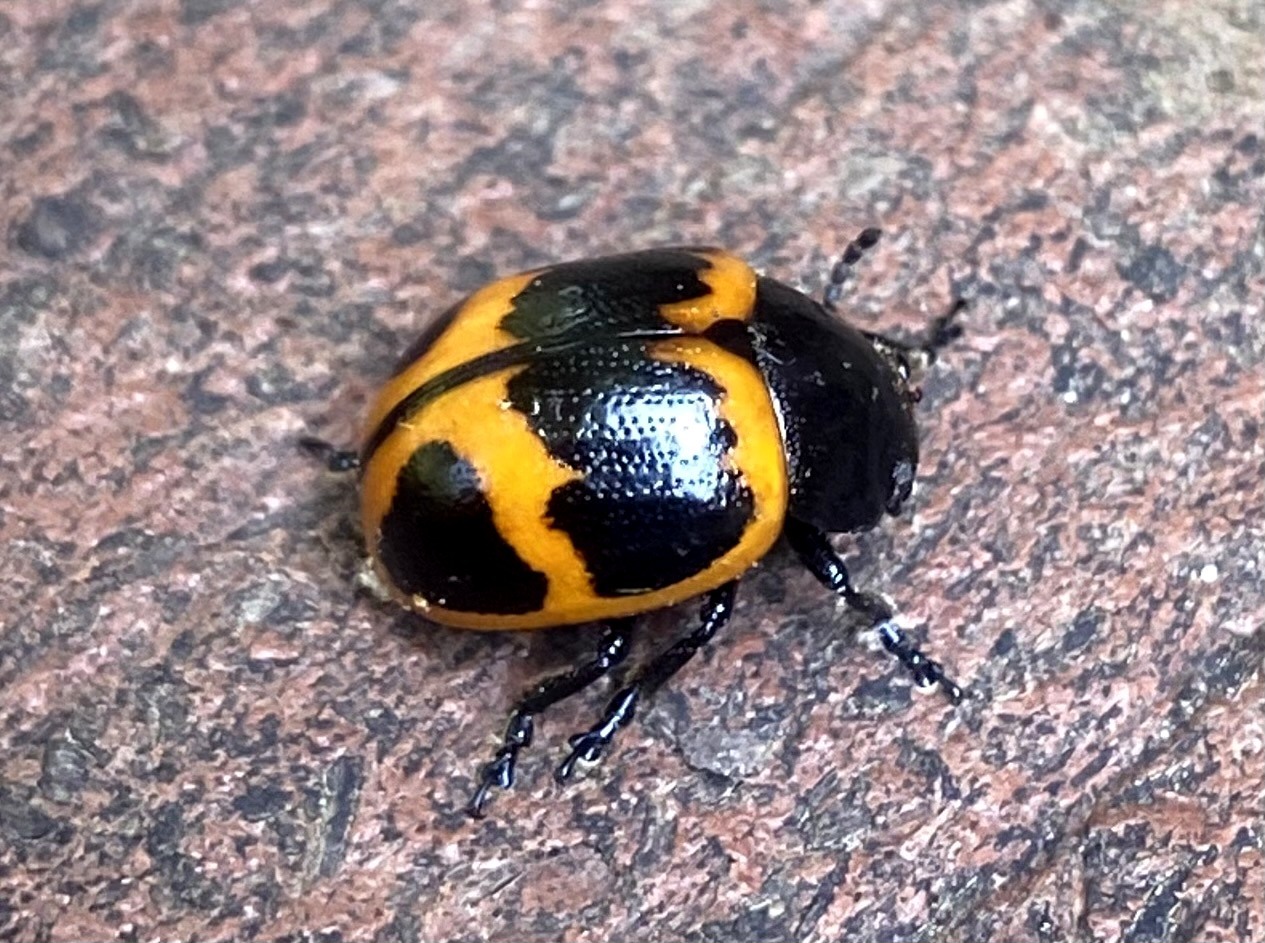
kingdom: Animalia
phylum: Arthropoda
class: Insecta
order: Coleoptera
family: Chrysomelidae
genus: Labidomera
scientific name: Labidomera clivicollis
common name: Swamp milkweed leaf beetle
